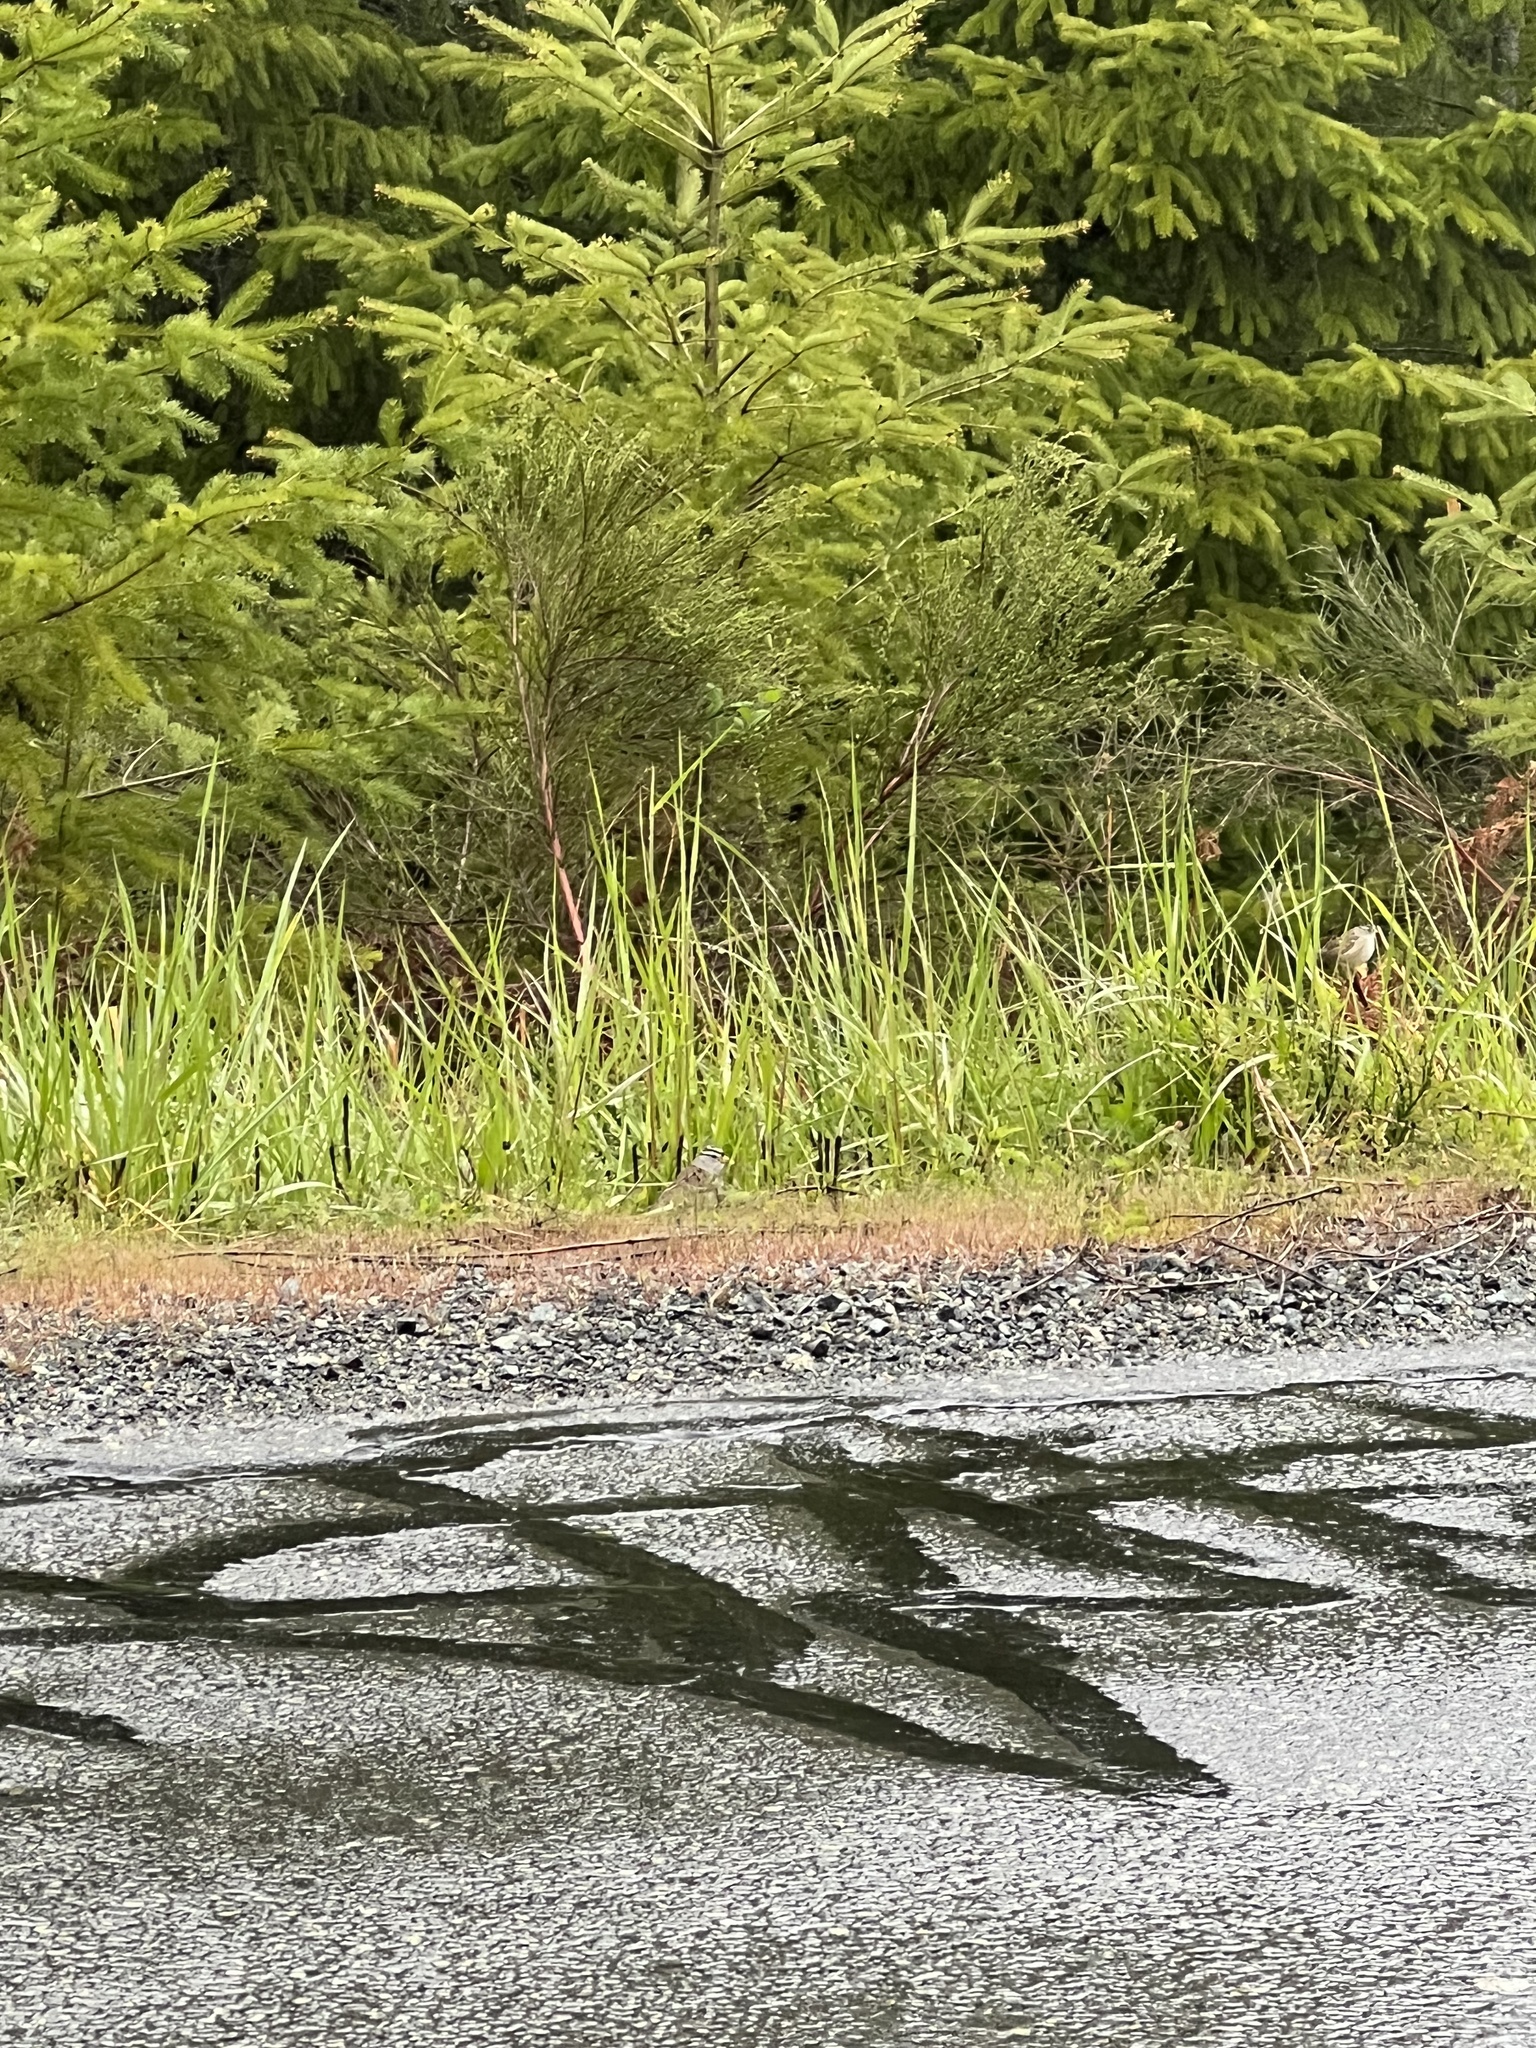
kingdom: Animalia
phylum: Chordata
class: Aves
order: Passeriformes
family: Passerellidae
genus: Zonotrichia
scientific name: Zonotrichia leucophrys
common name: White-crowned sparrow
